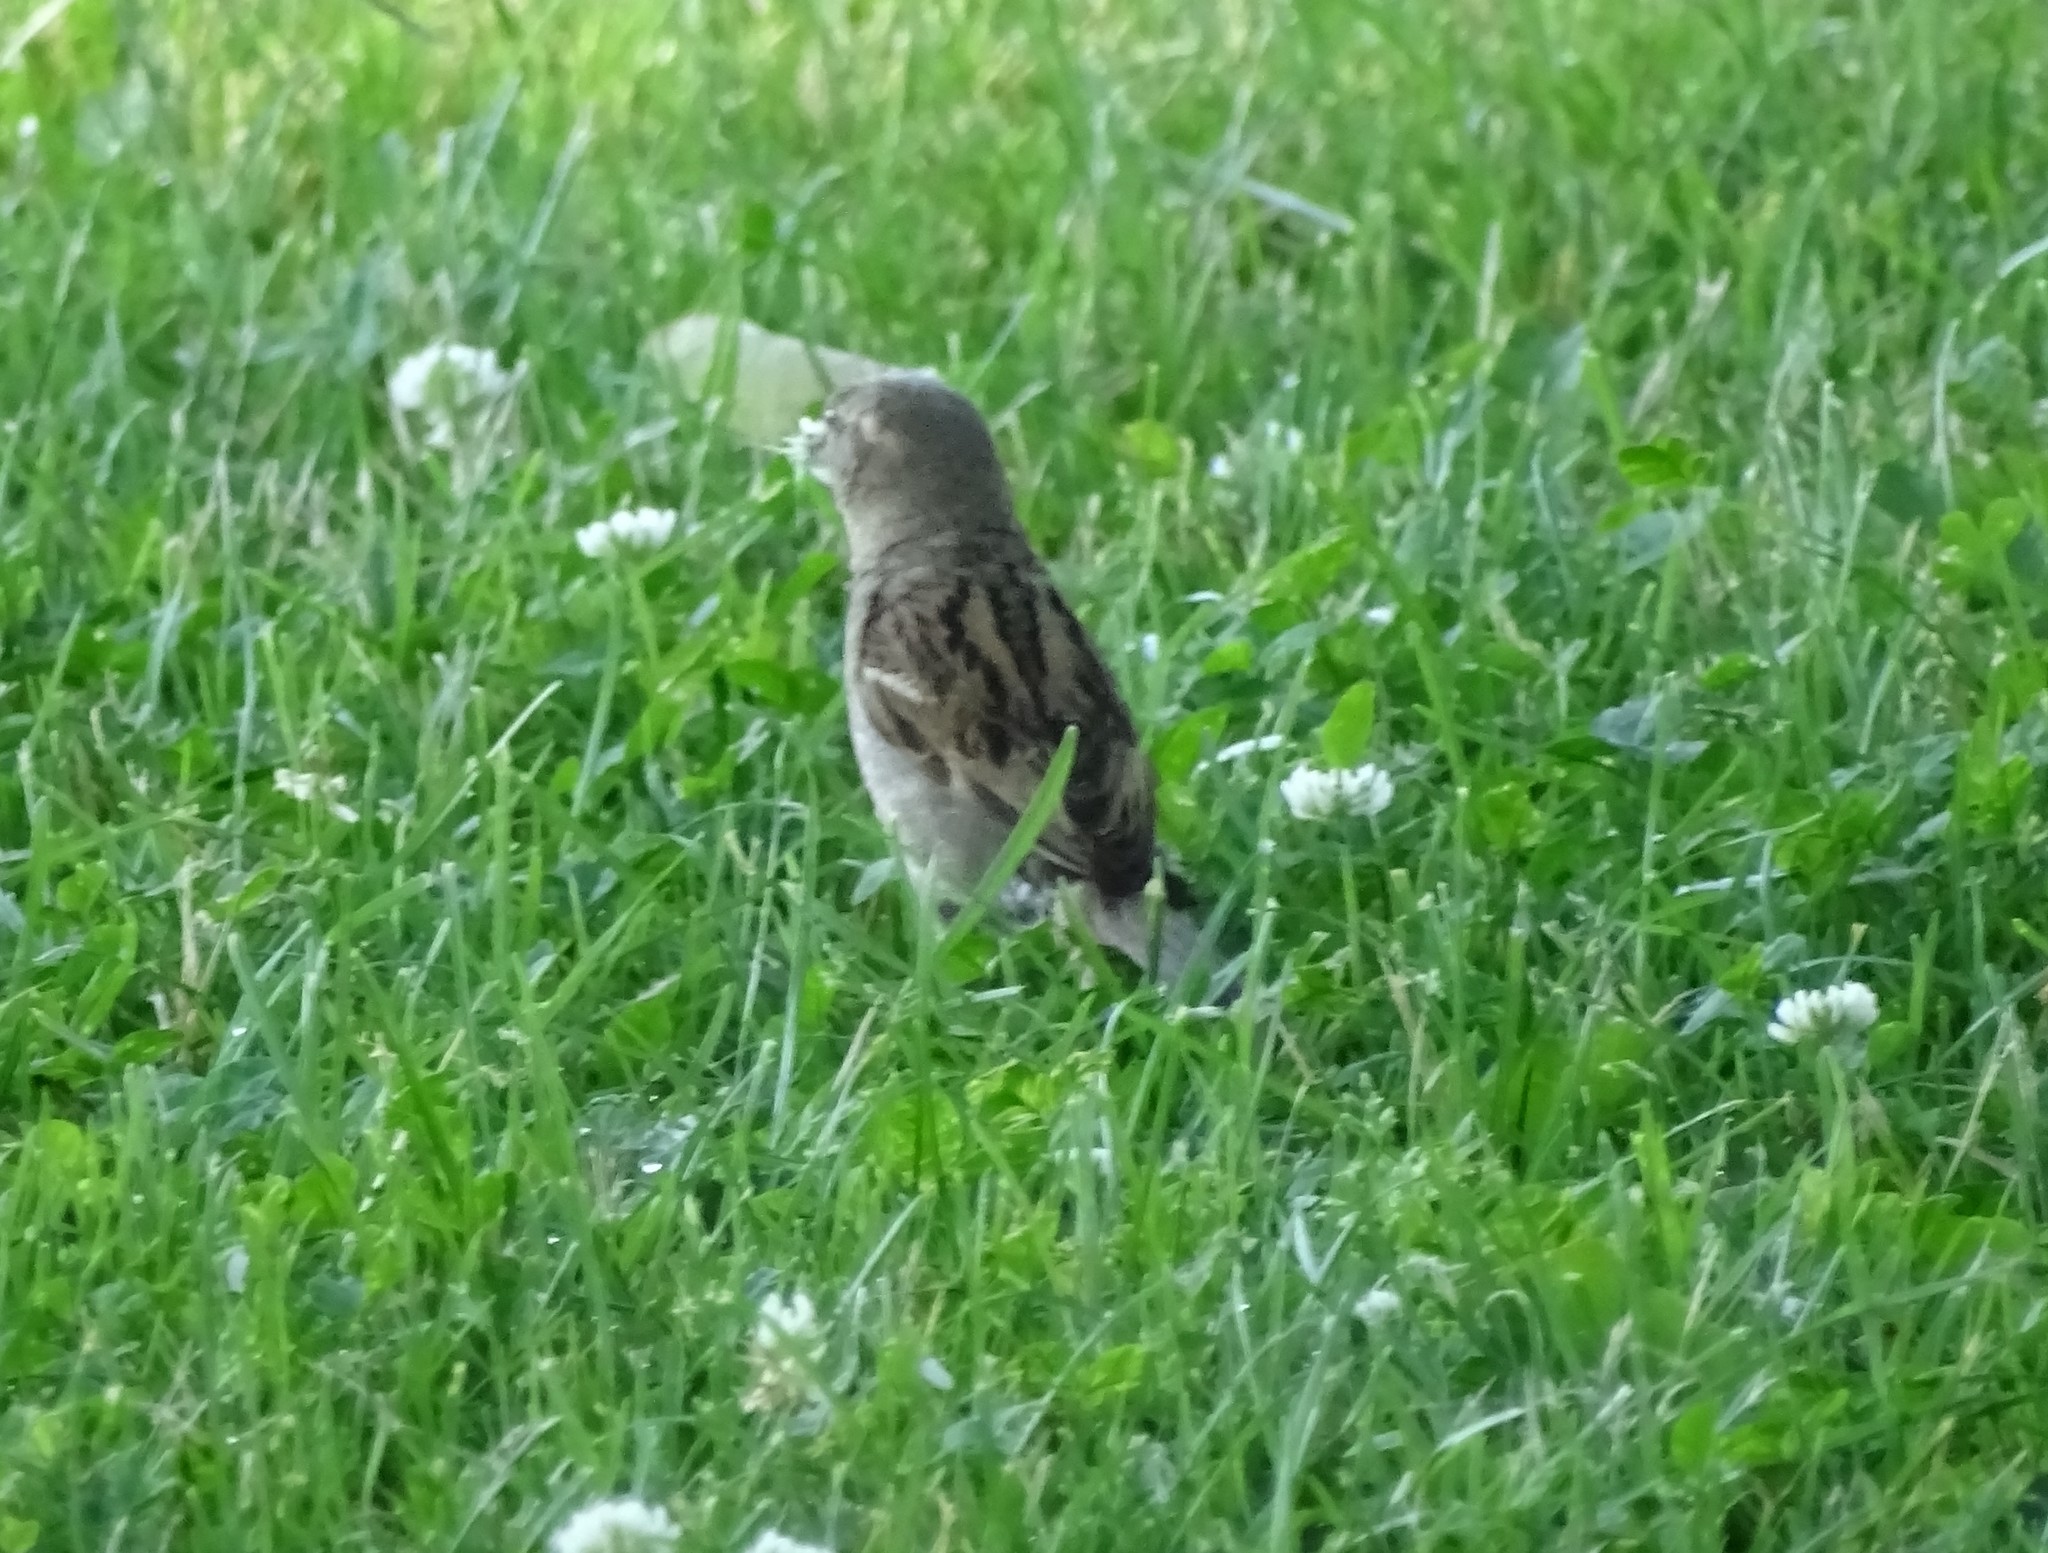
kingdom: Animalia
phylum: Chordata
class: Aves
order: Passeriformes
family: Passeridae
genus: Passer
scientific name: Passer domesticus
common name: House sparrow
